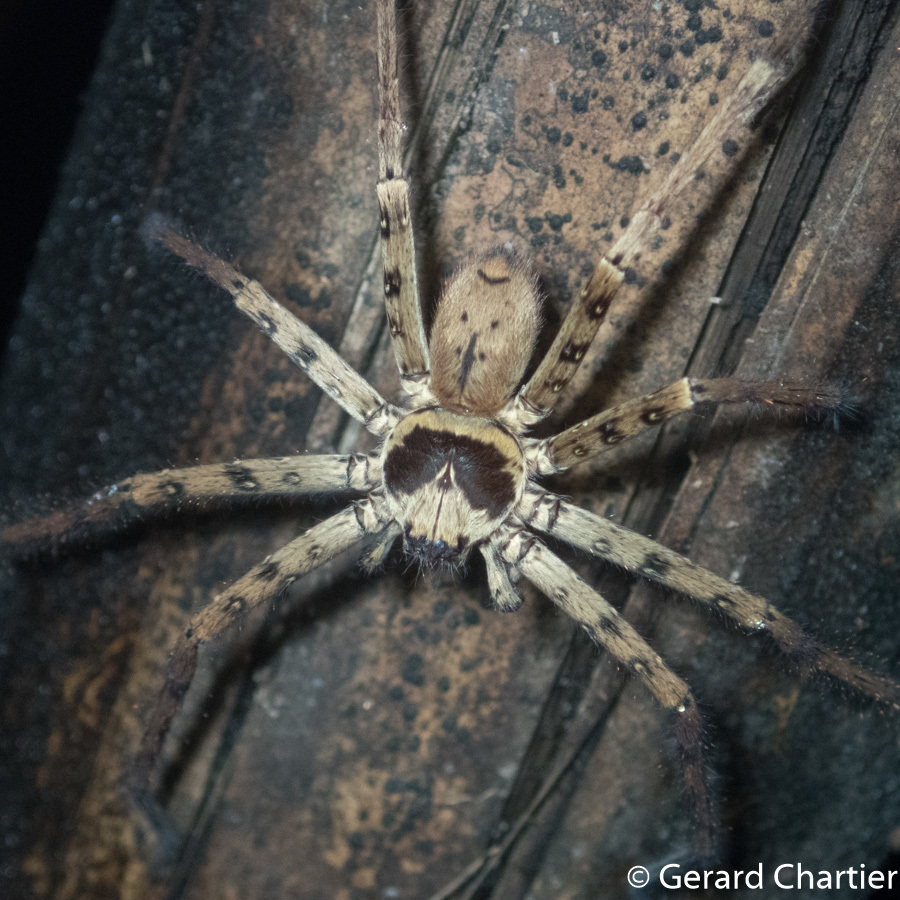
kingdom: Animalia
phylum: Arthropoda
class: Arachnida
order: Araneae
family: Sparassidae
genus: Heteropoda
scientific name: Heteropoda venatoria
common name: Huntsman spider
